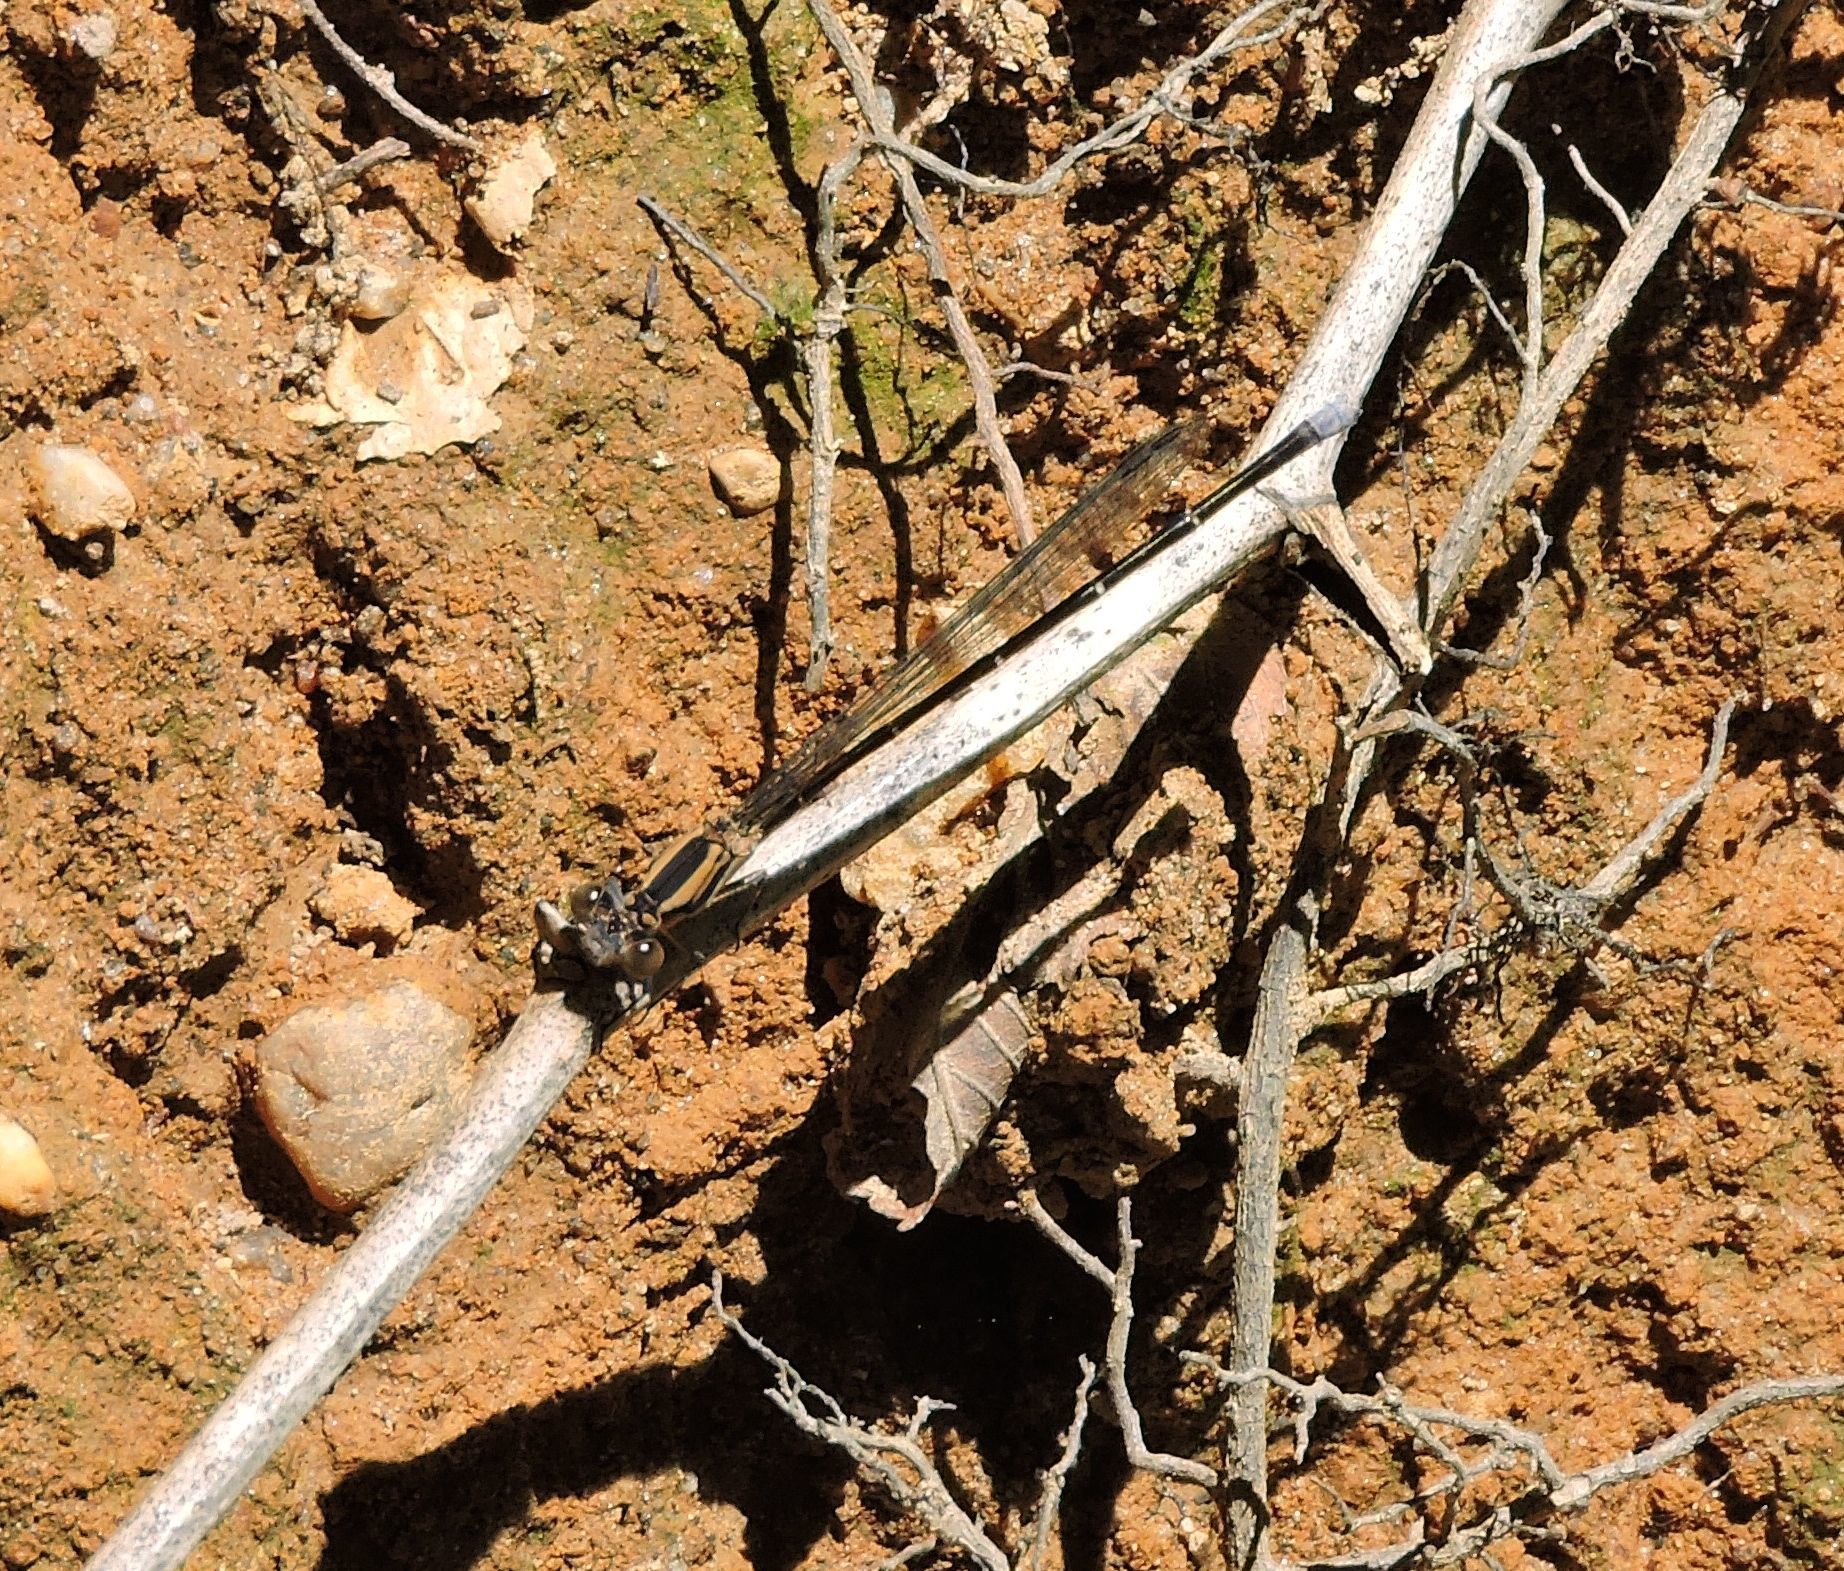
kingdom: Animalia
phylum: Arthropoda
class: Insecta
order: Odonata
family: Coenagrionidae
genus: Argia
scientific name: Argia moesta
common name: Powdered dancer
